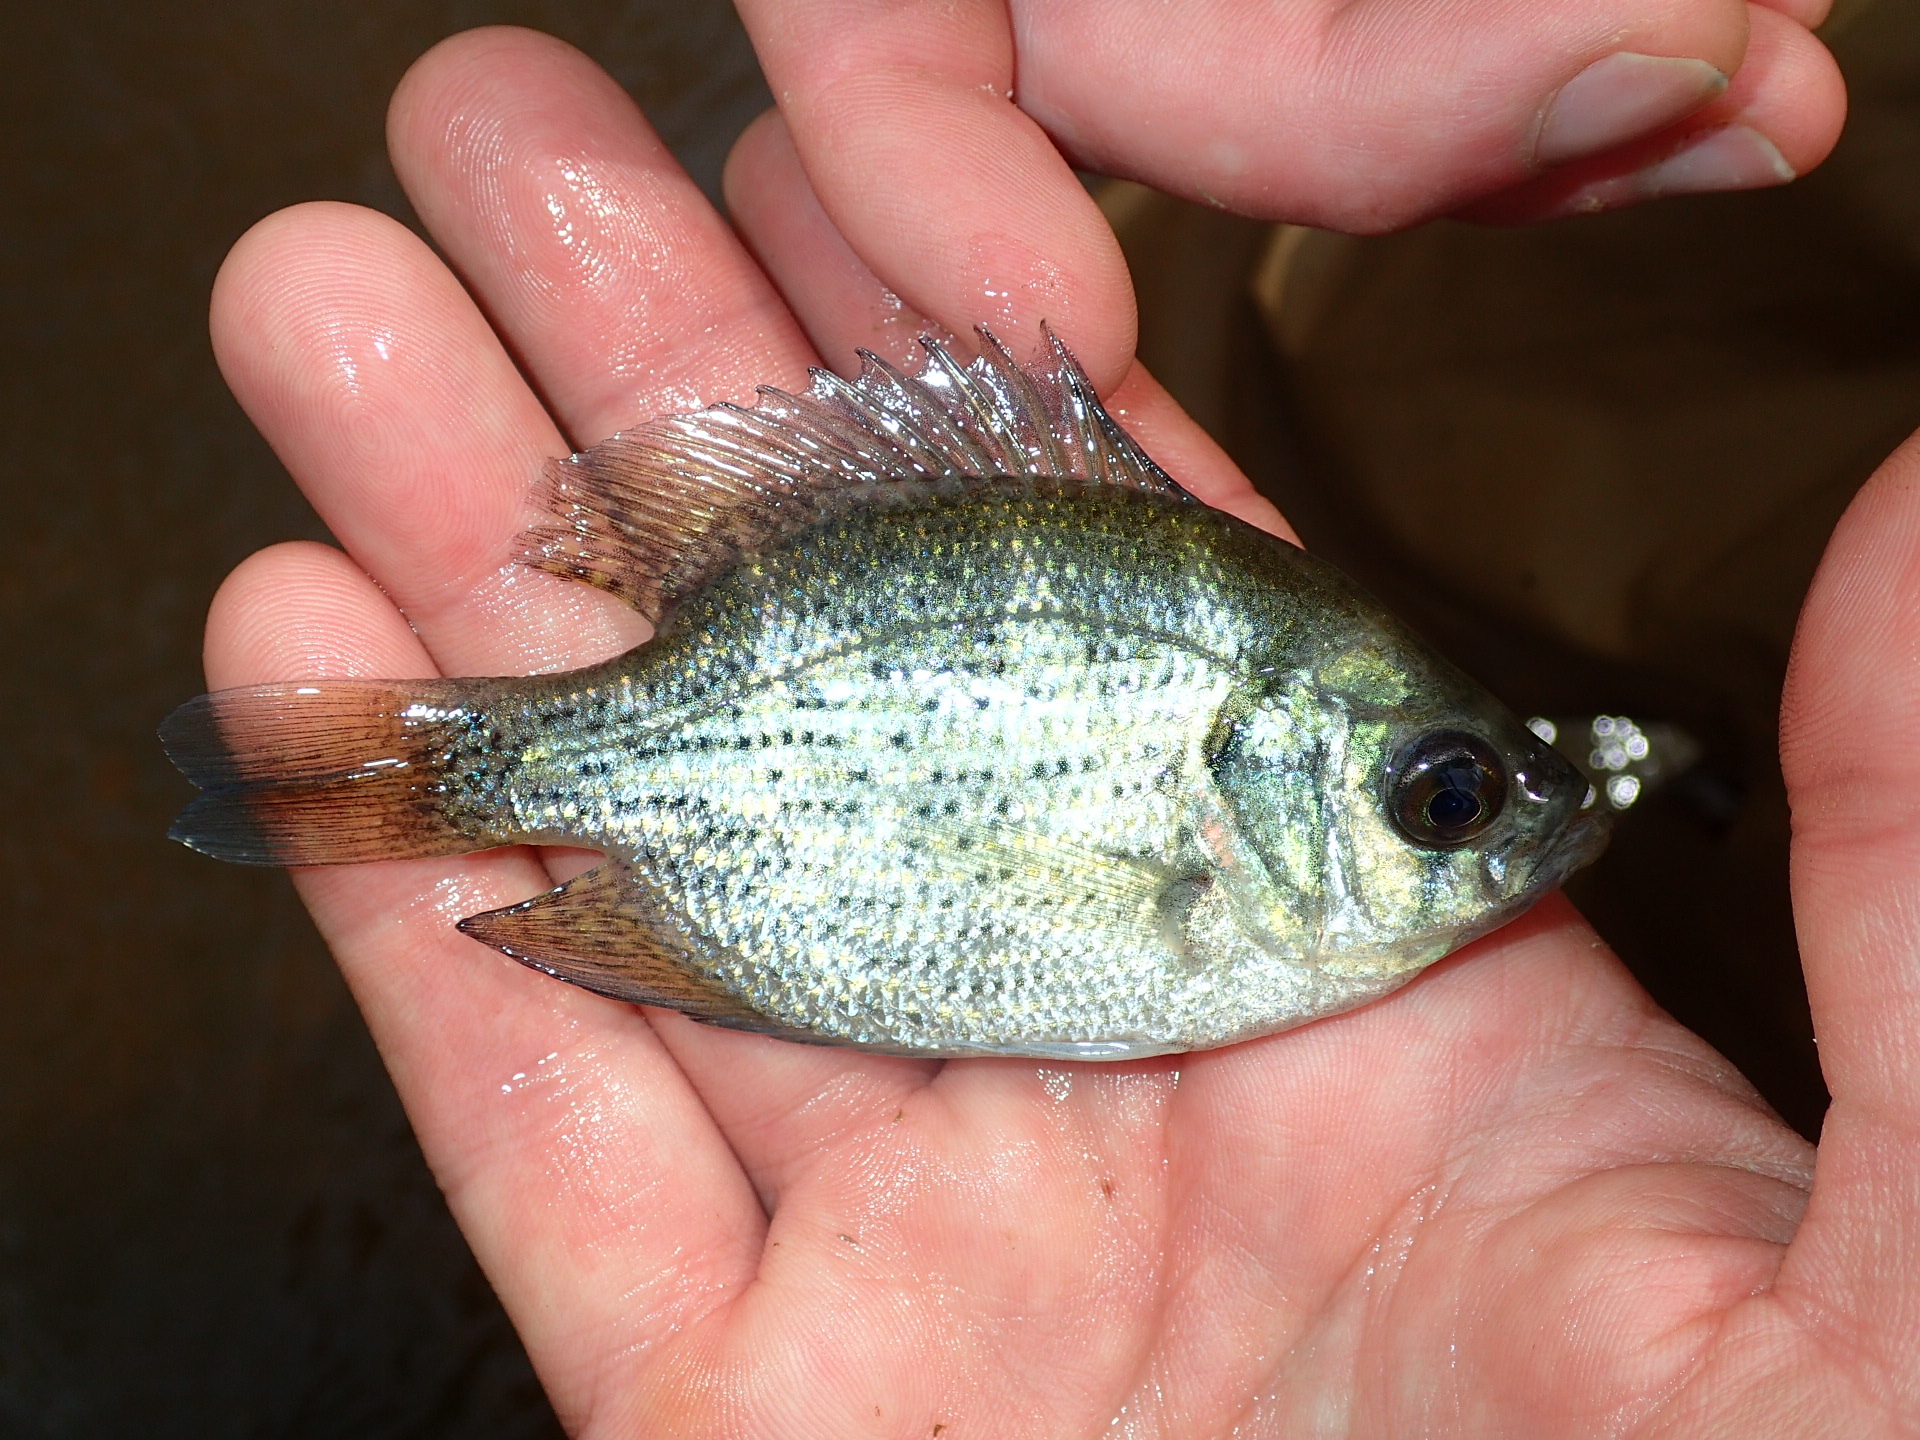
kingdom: Animalia
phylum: Chordata
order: Perciformes
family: Centrarchidae
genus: Centrarchus
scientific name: Centrarchus macropterus
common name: Flier
